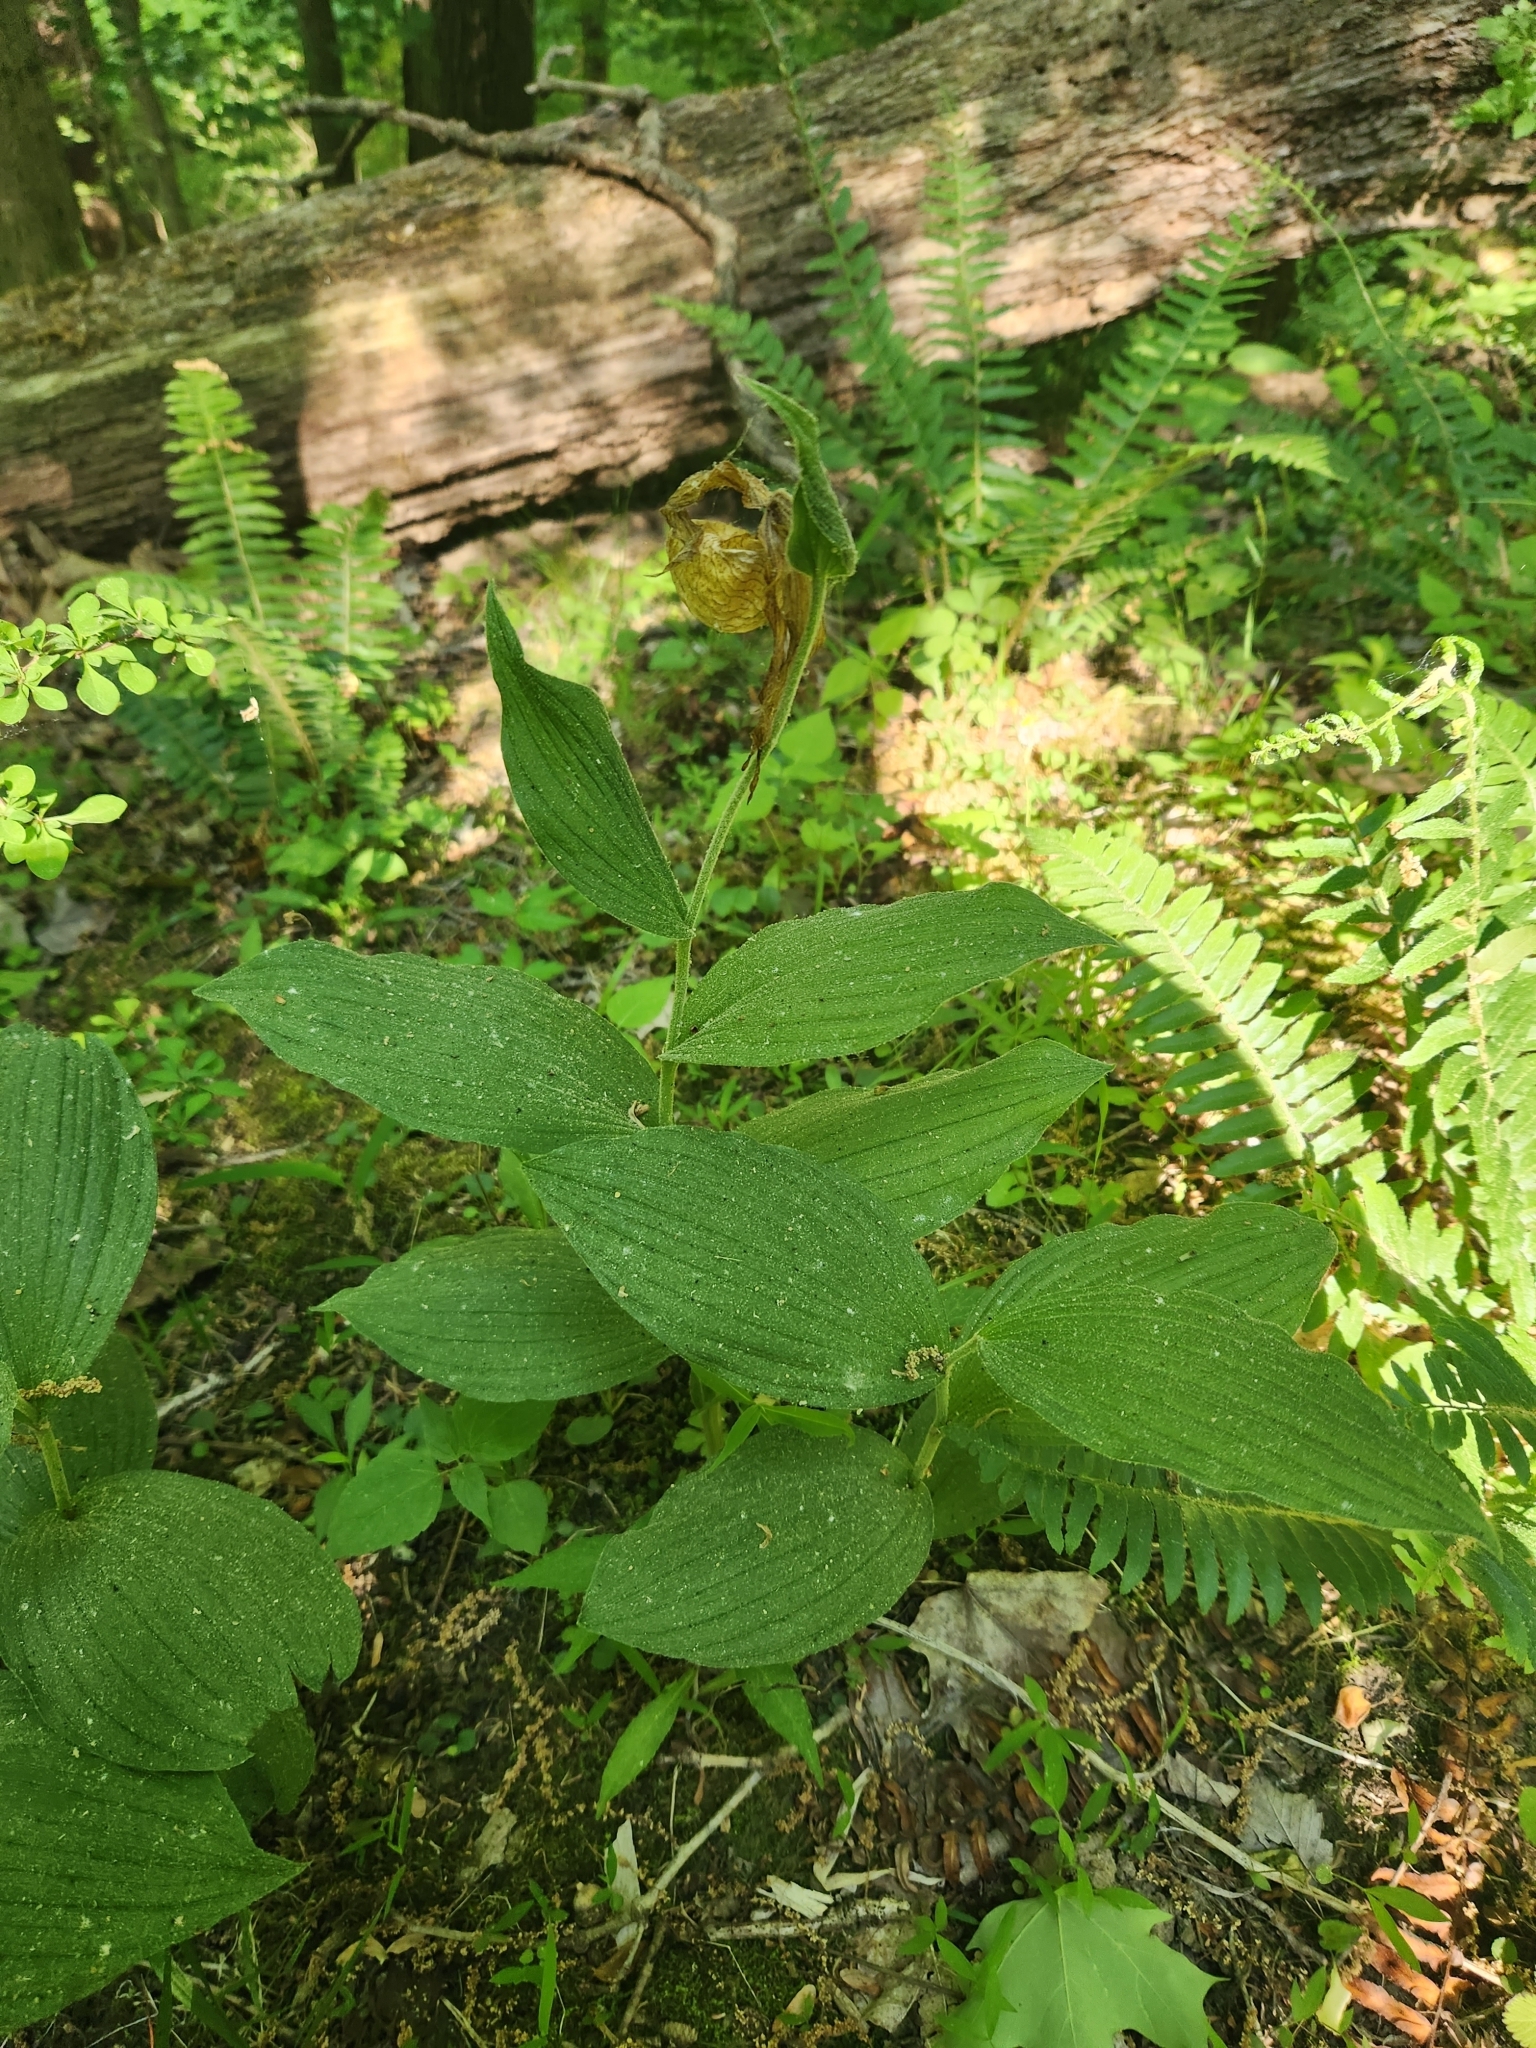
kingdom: Plantae
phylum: Tracheophyta
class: Liliopsida
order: Asparagales
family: Orchidaceae
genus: Cypripedium
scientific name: Cypripedium parviflorum
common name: American yellow lady's-slipper
